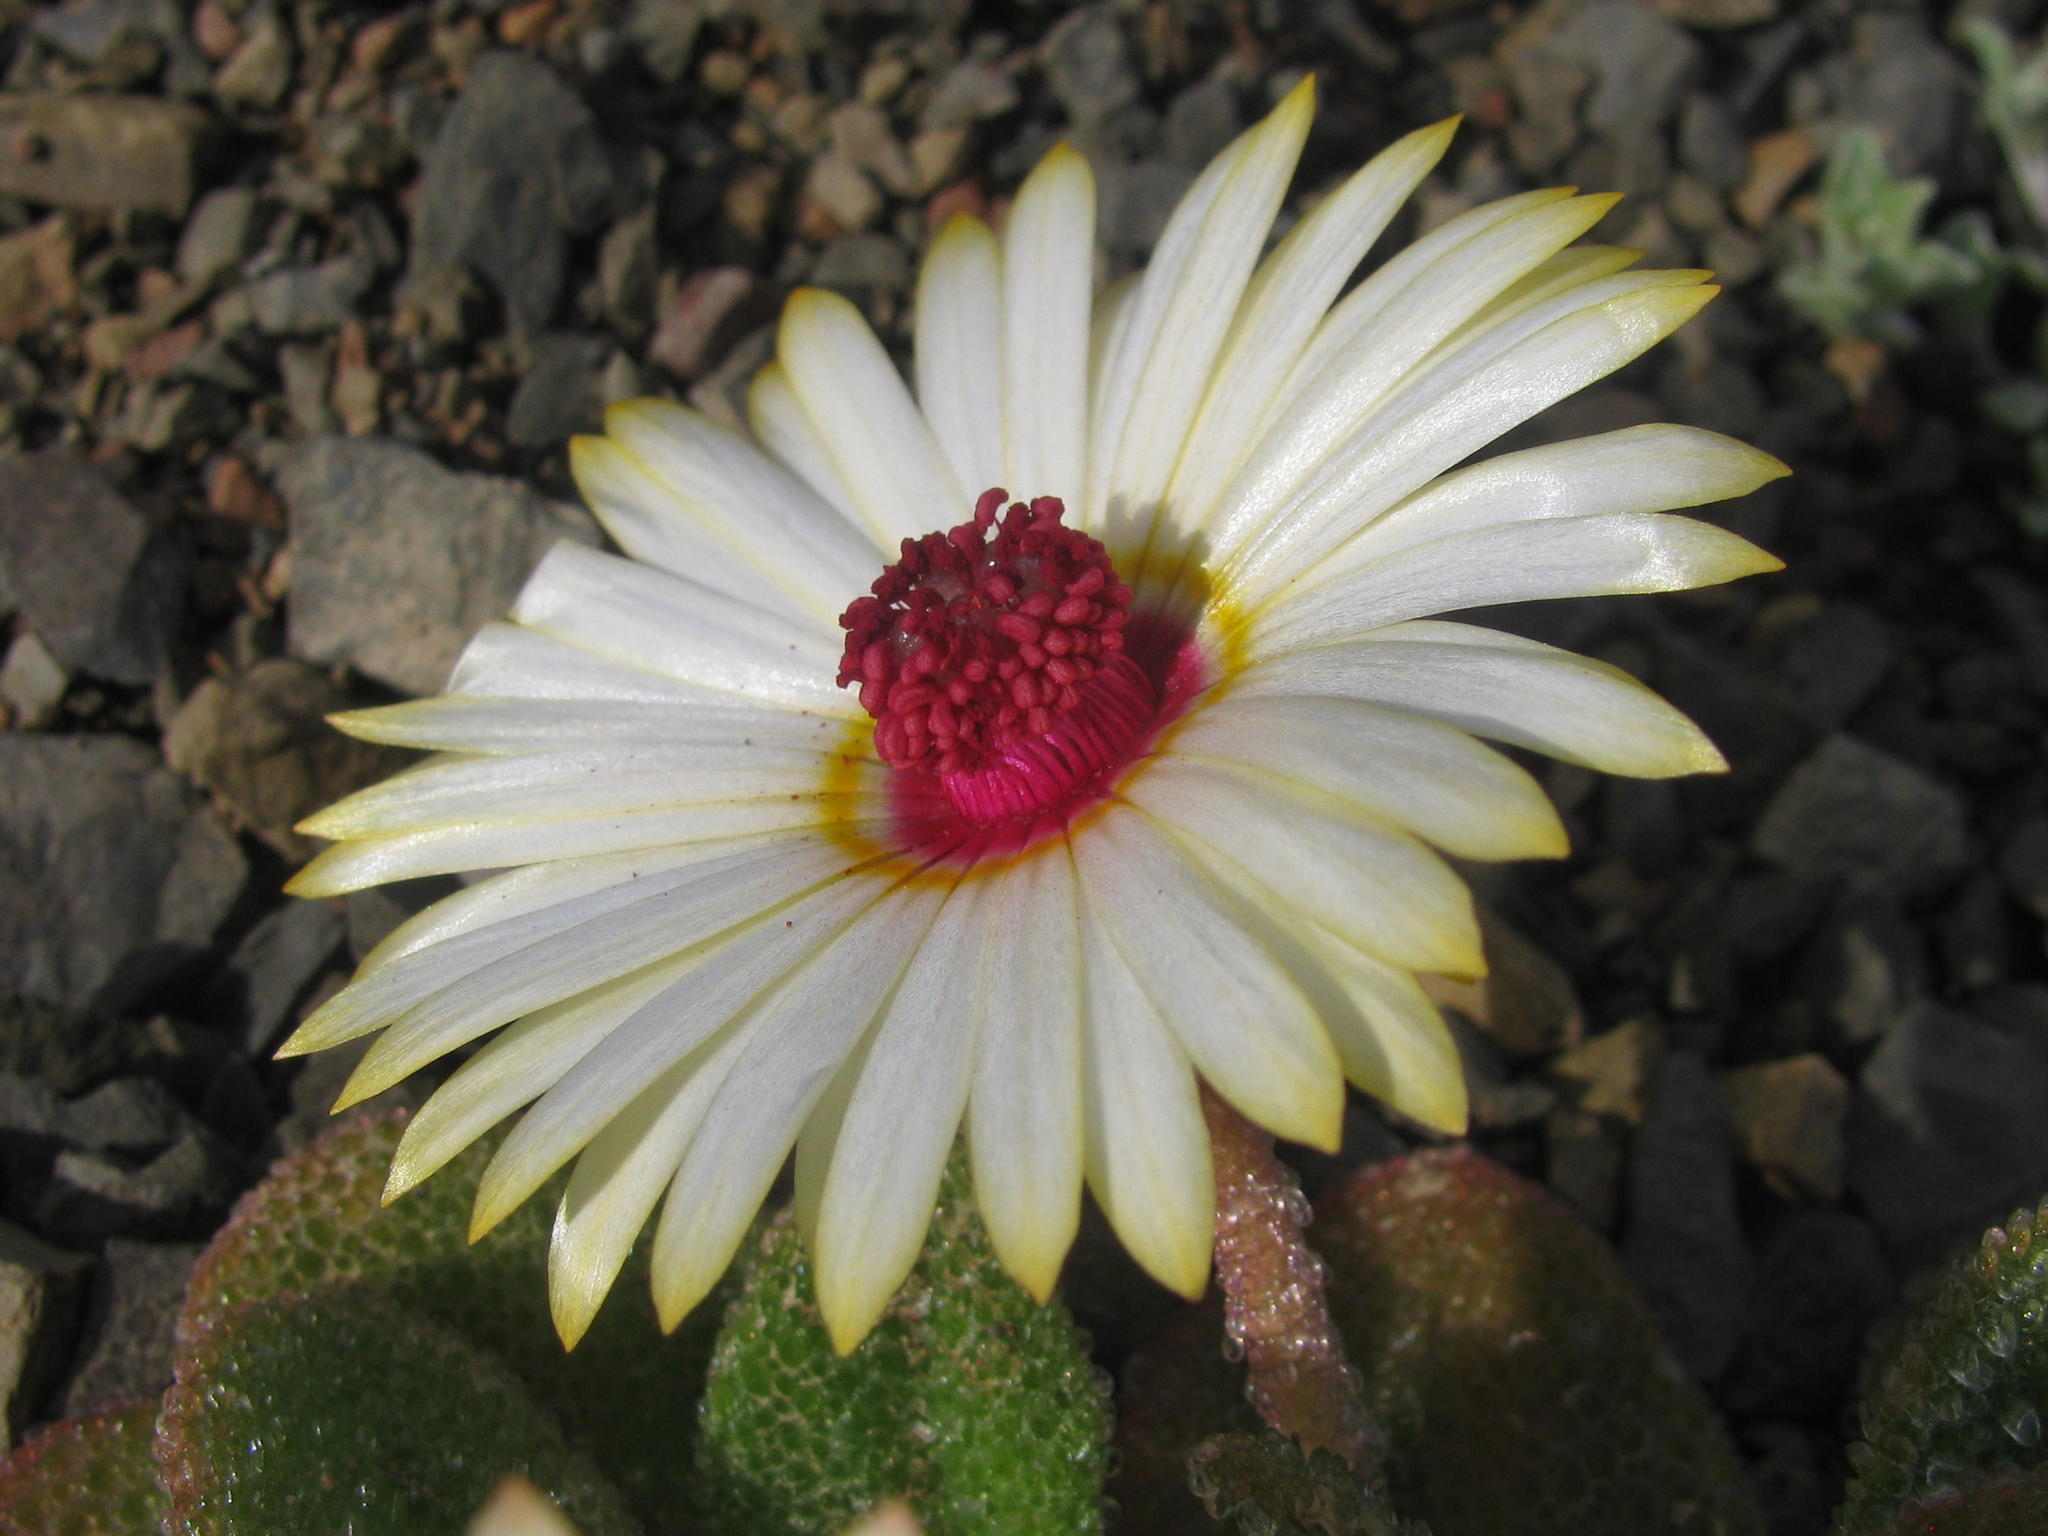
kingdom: Plantae
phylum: Tracheophyta
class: Magnoliopsida
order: Caryophyllales
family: Aizoaceae
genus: Cleretum
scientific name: Cleretum maughanii
